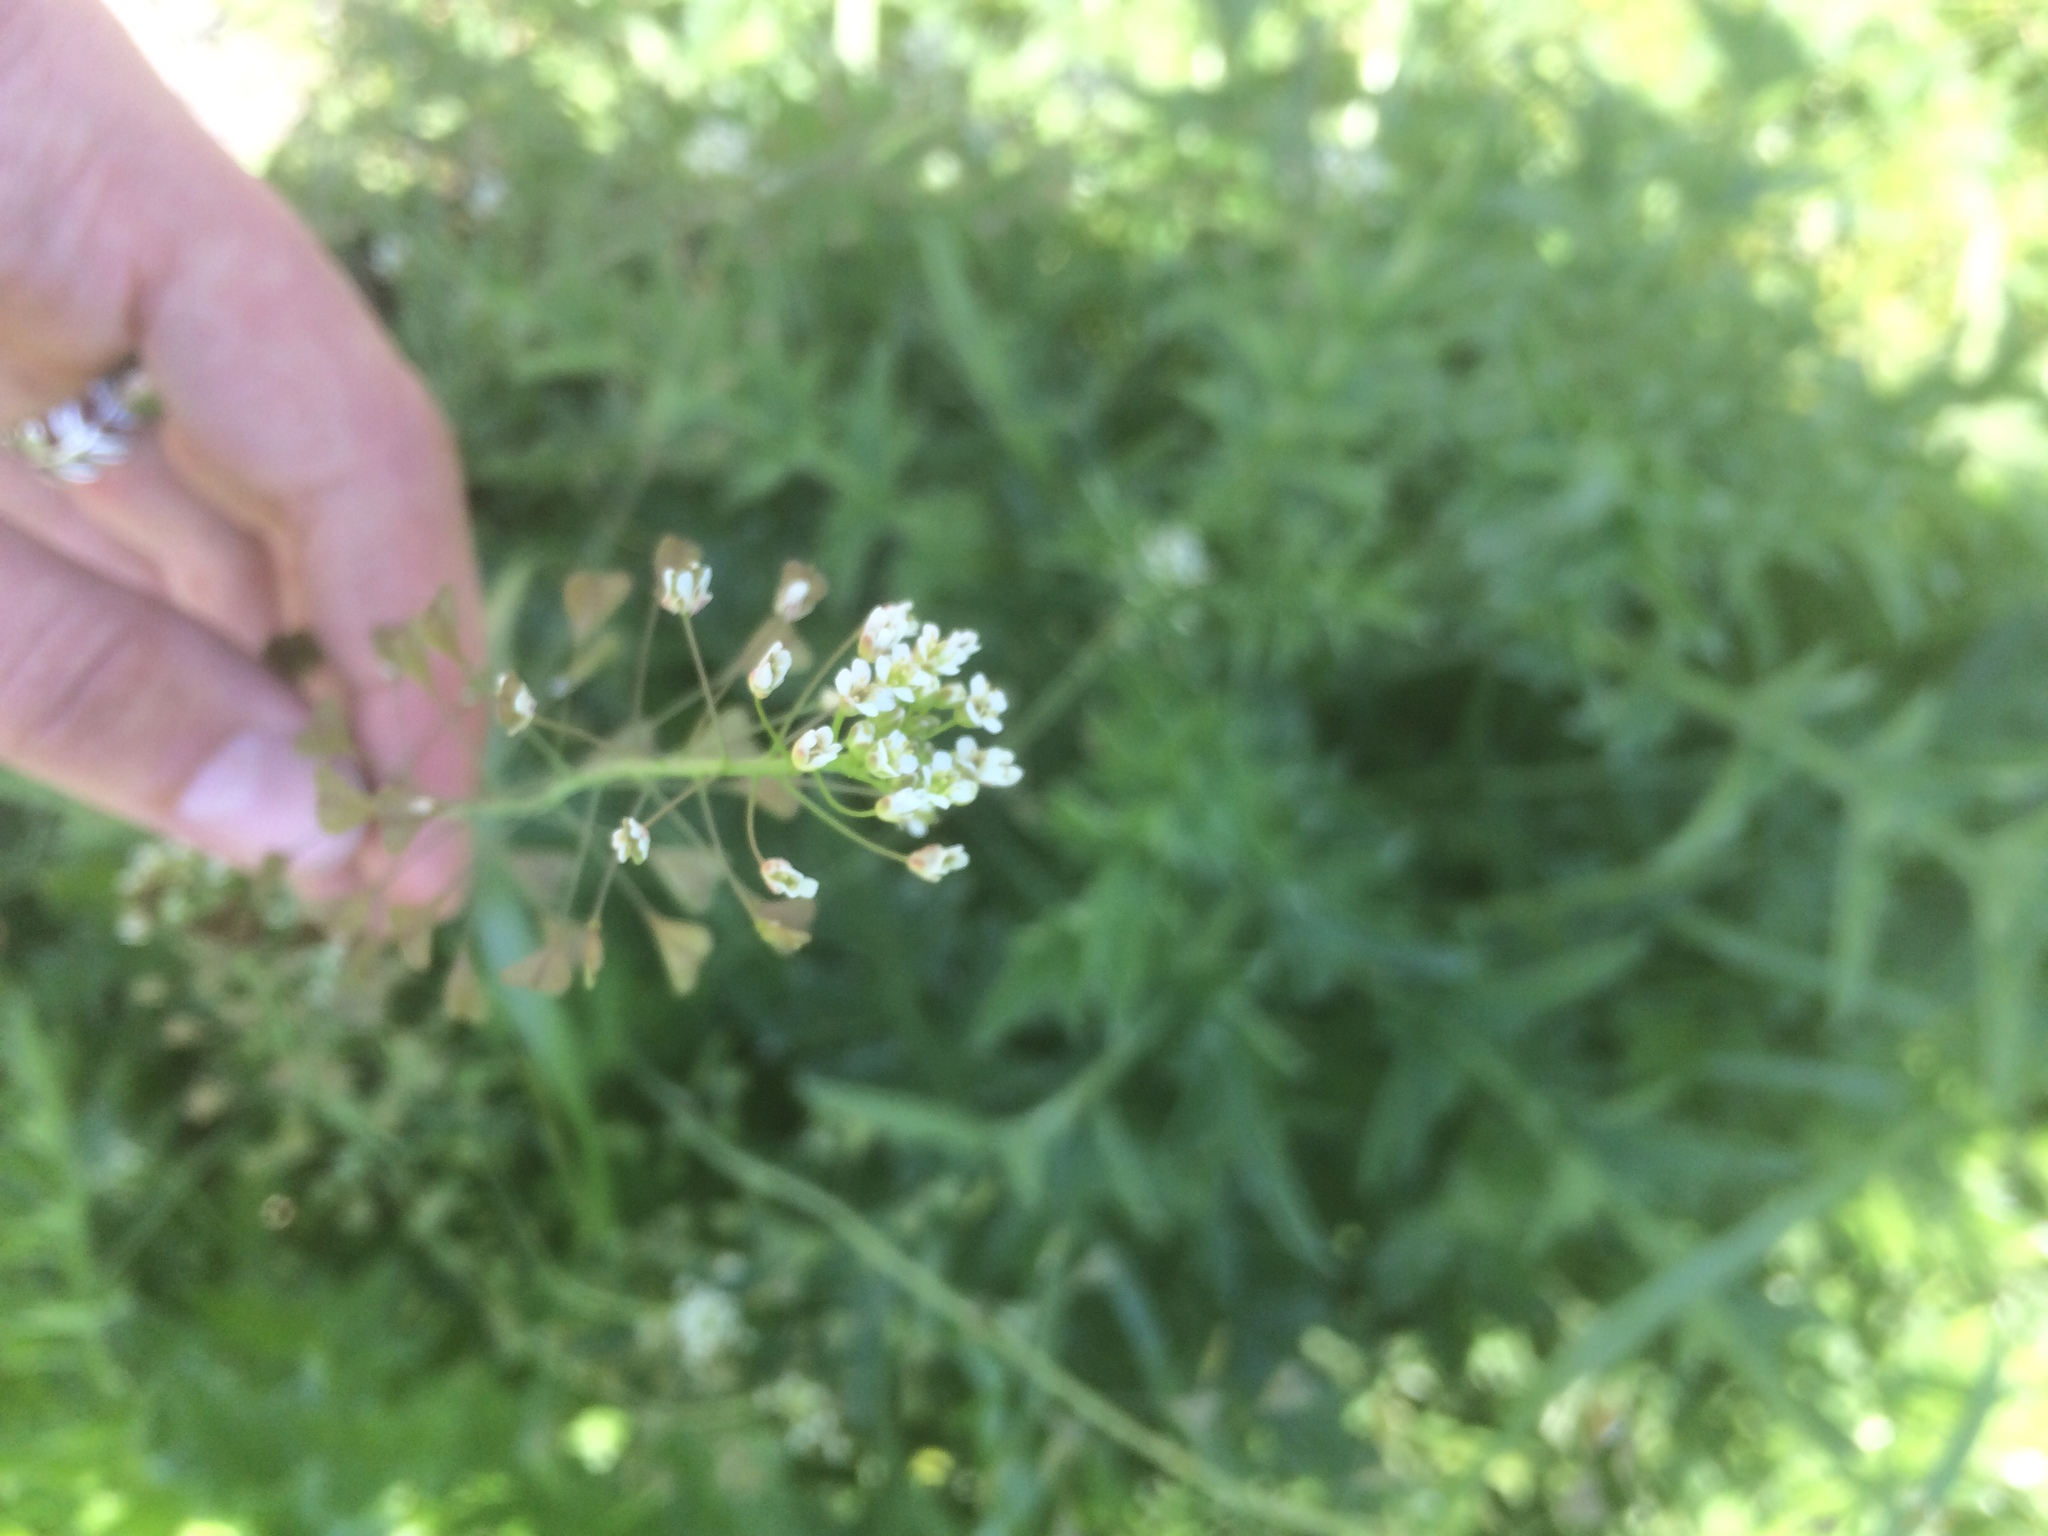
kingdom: Plantae
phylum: Tracheophyta
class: Magnoliopsida
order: Brassicales
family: Brassicaceae
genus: Capsella
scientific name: Capsella bursa-pastoris
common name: Shepherd's purse
